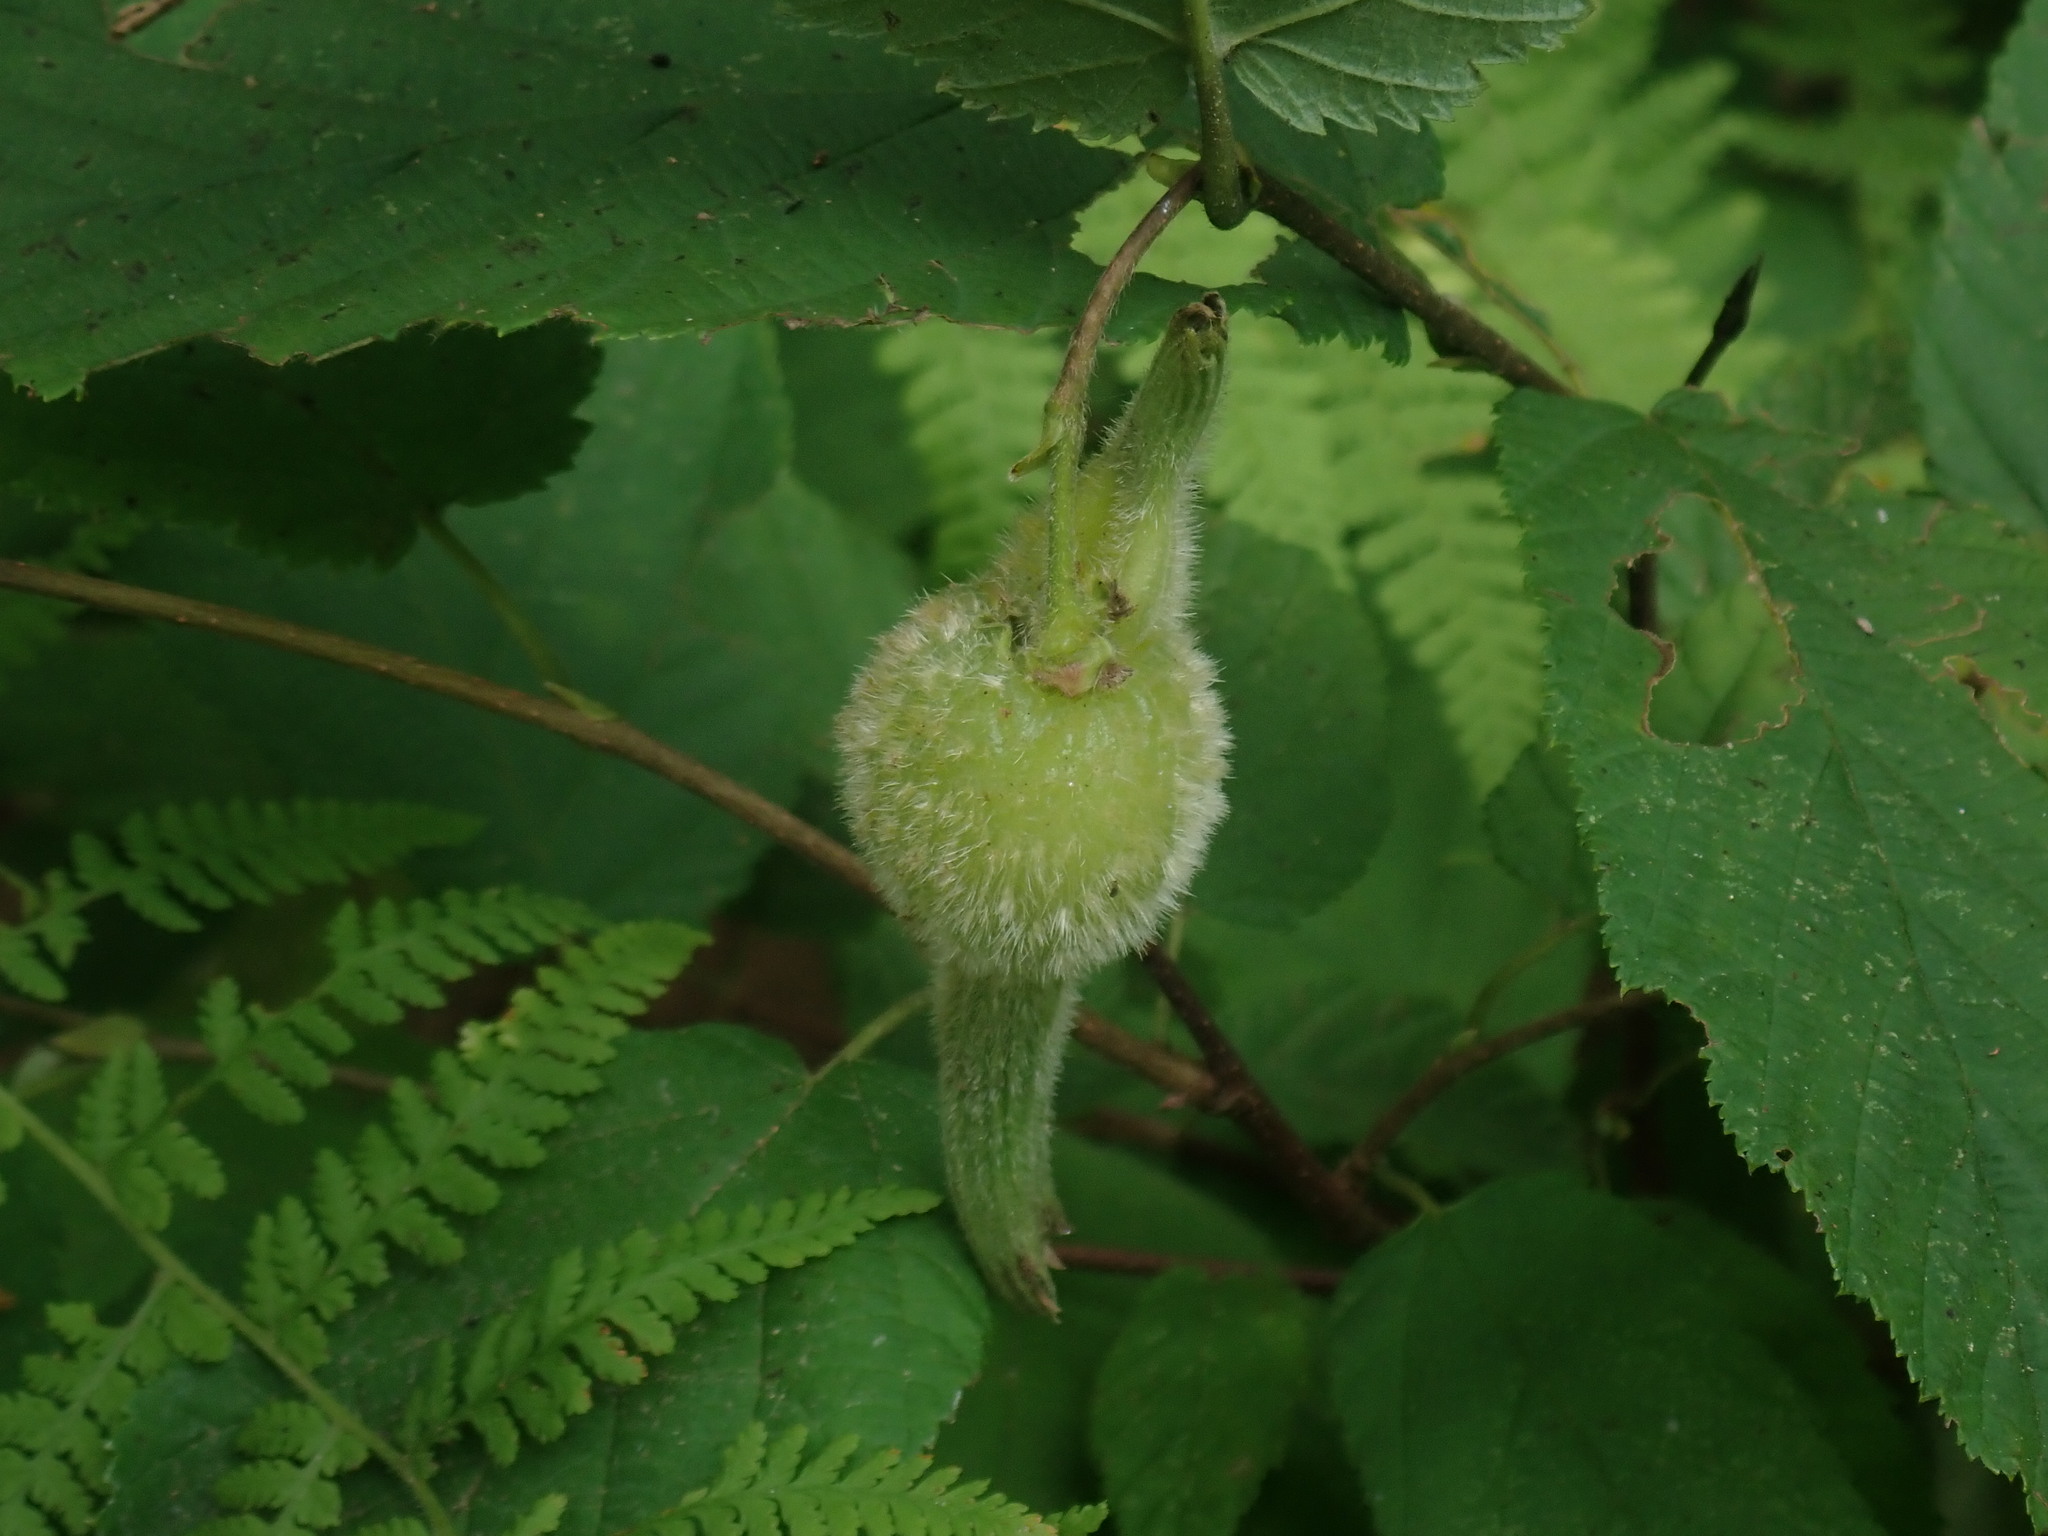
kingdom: Plantae
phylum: Tracheophyta
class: Magnoliopsida
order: Fagales
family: Betulaceae
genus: Corylus
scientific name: Corylus cornuta
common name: Beaked hazel
